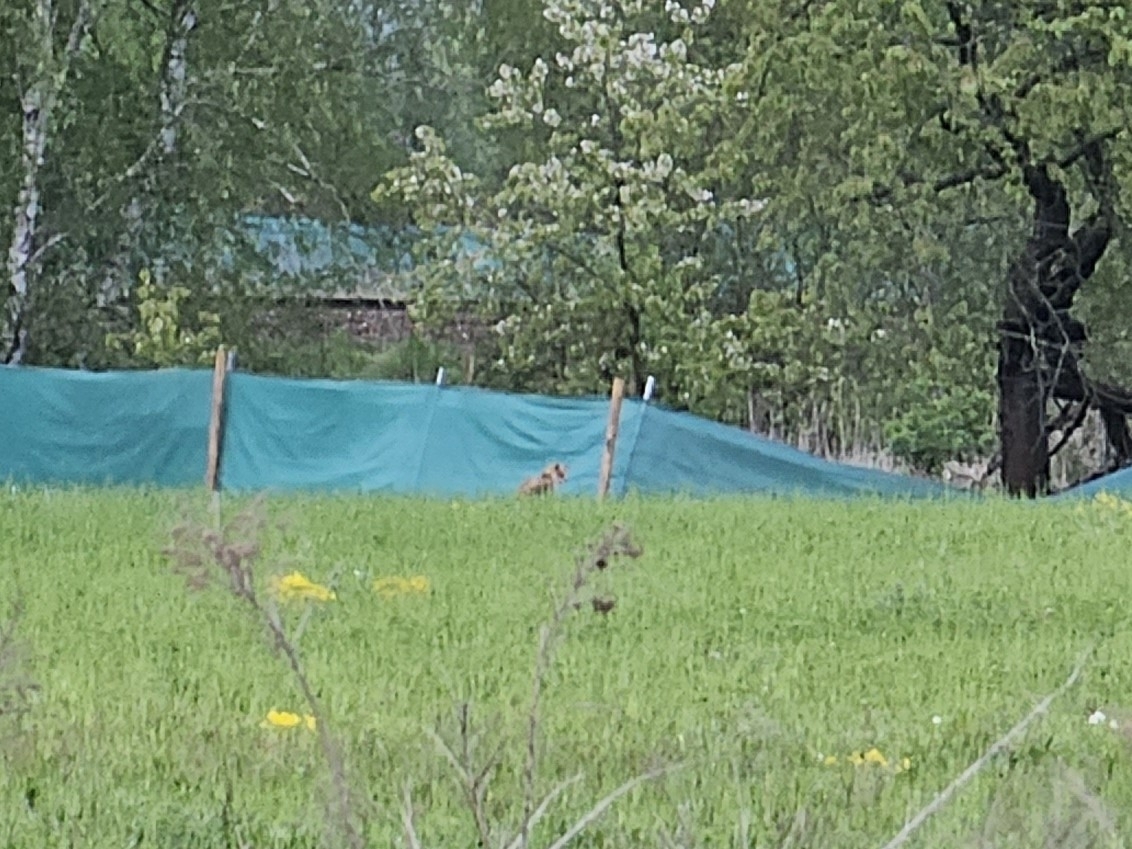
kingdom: Animalia
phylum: Chordata
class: Mammalia
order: Carnivora
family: Canidae
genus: Vulpes
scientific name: Vulpes vulpes
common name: Red fox
